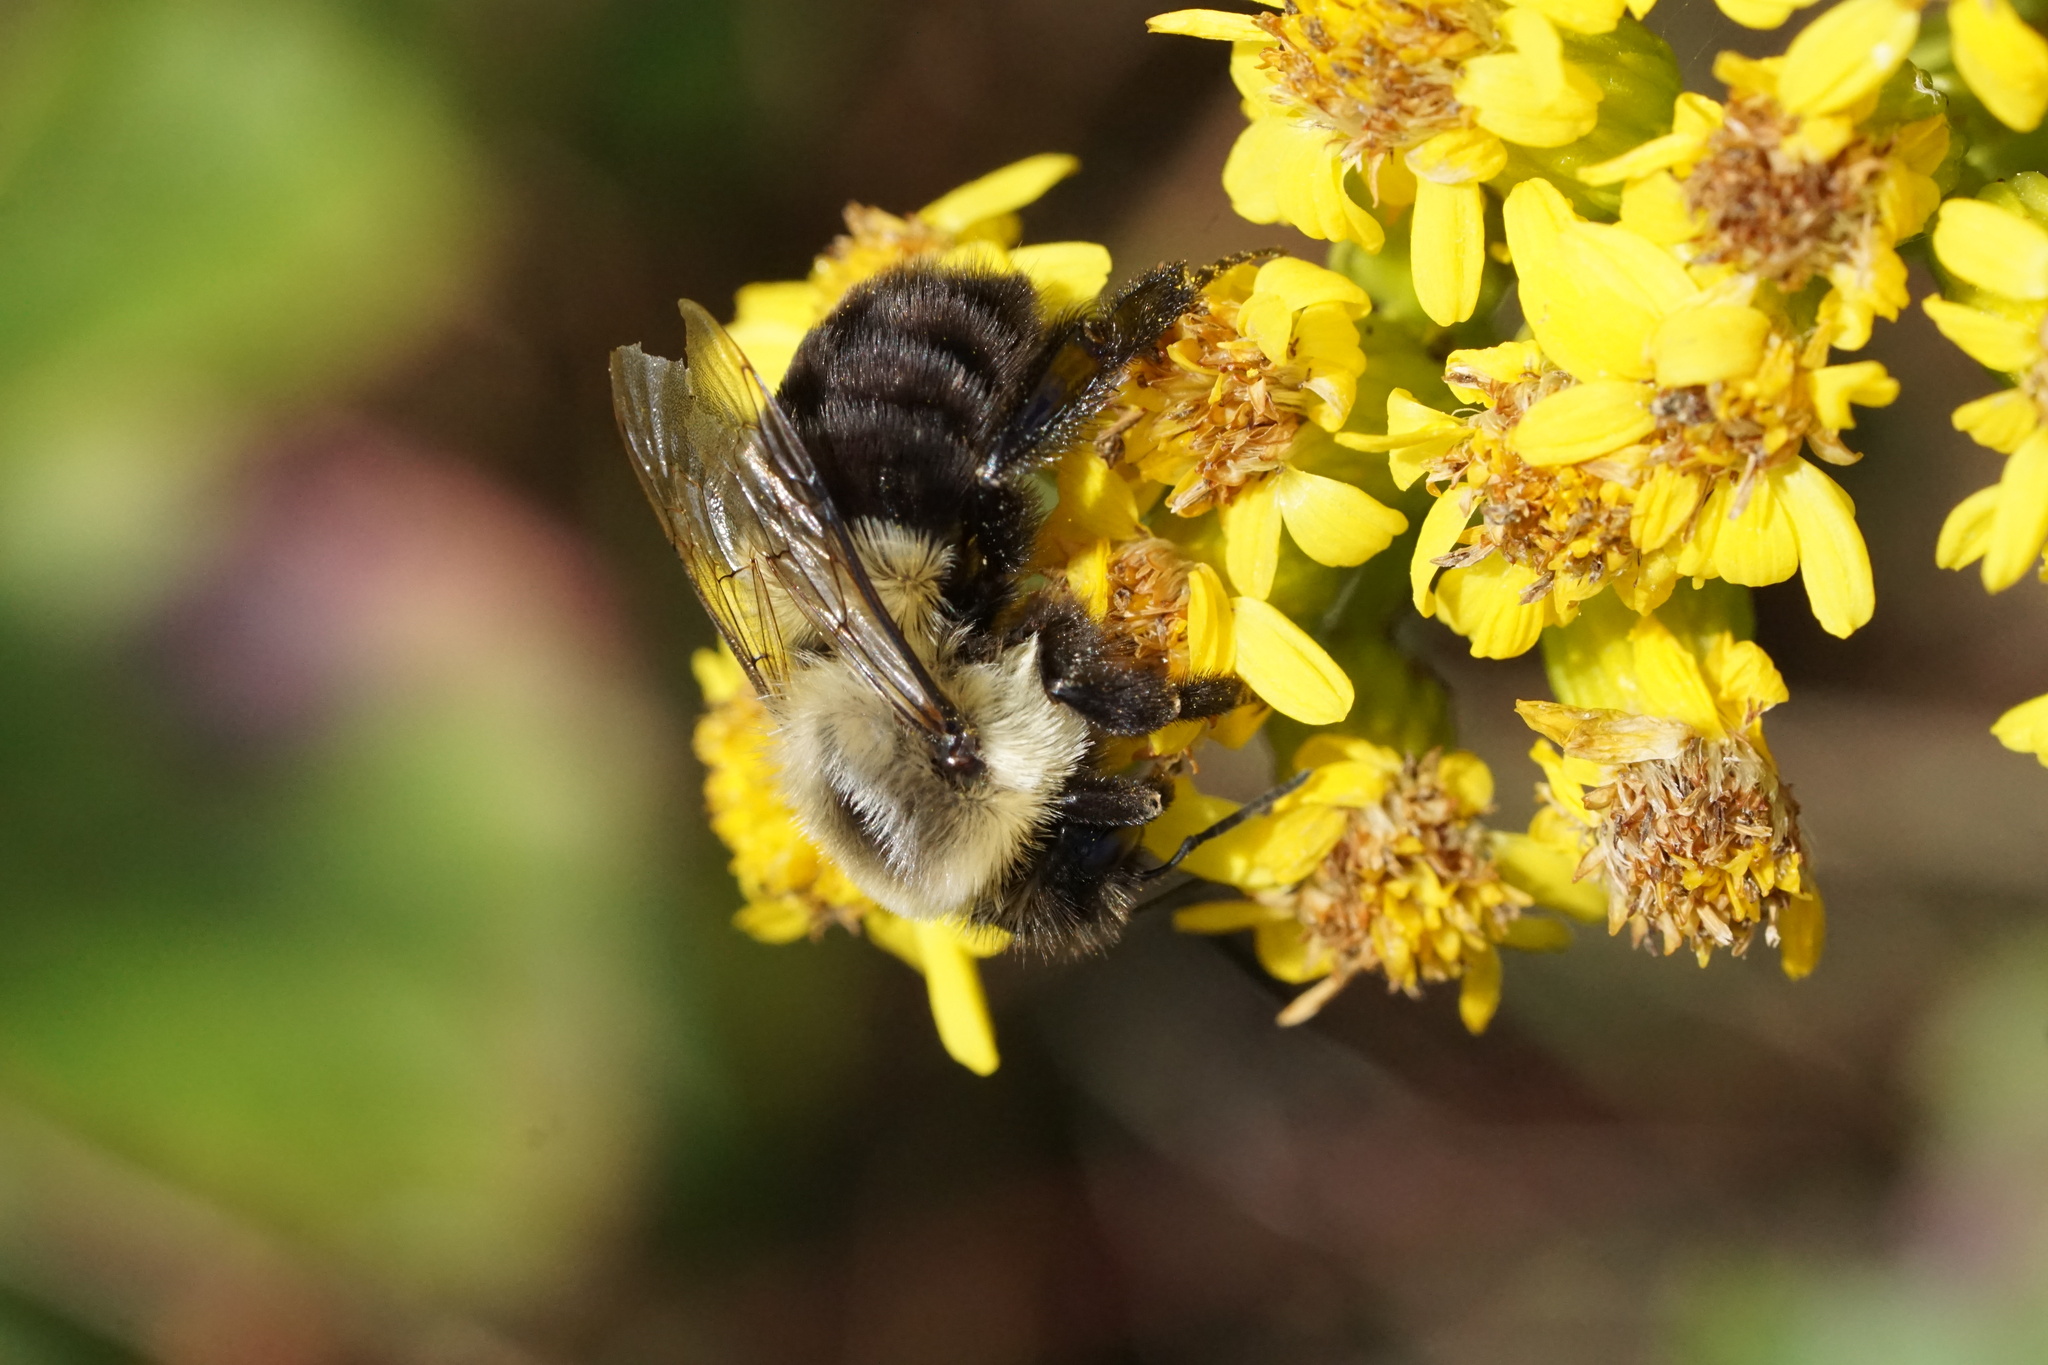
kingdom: Animalia
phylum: Arthropoda
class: Insecta
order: Hymenoptera
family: Apidae
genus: Bombus
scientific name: Bombus impatiens
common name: Common eastern bumble bee
